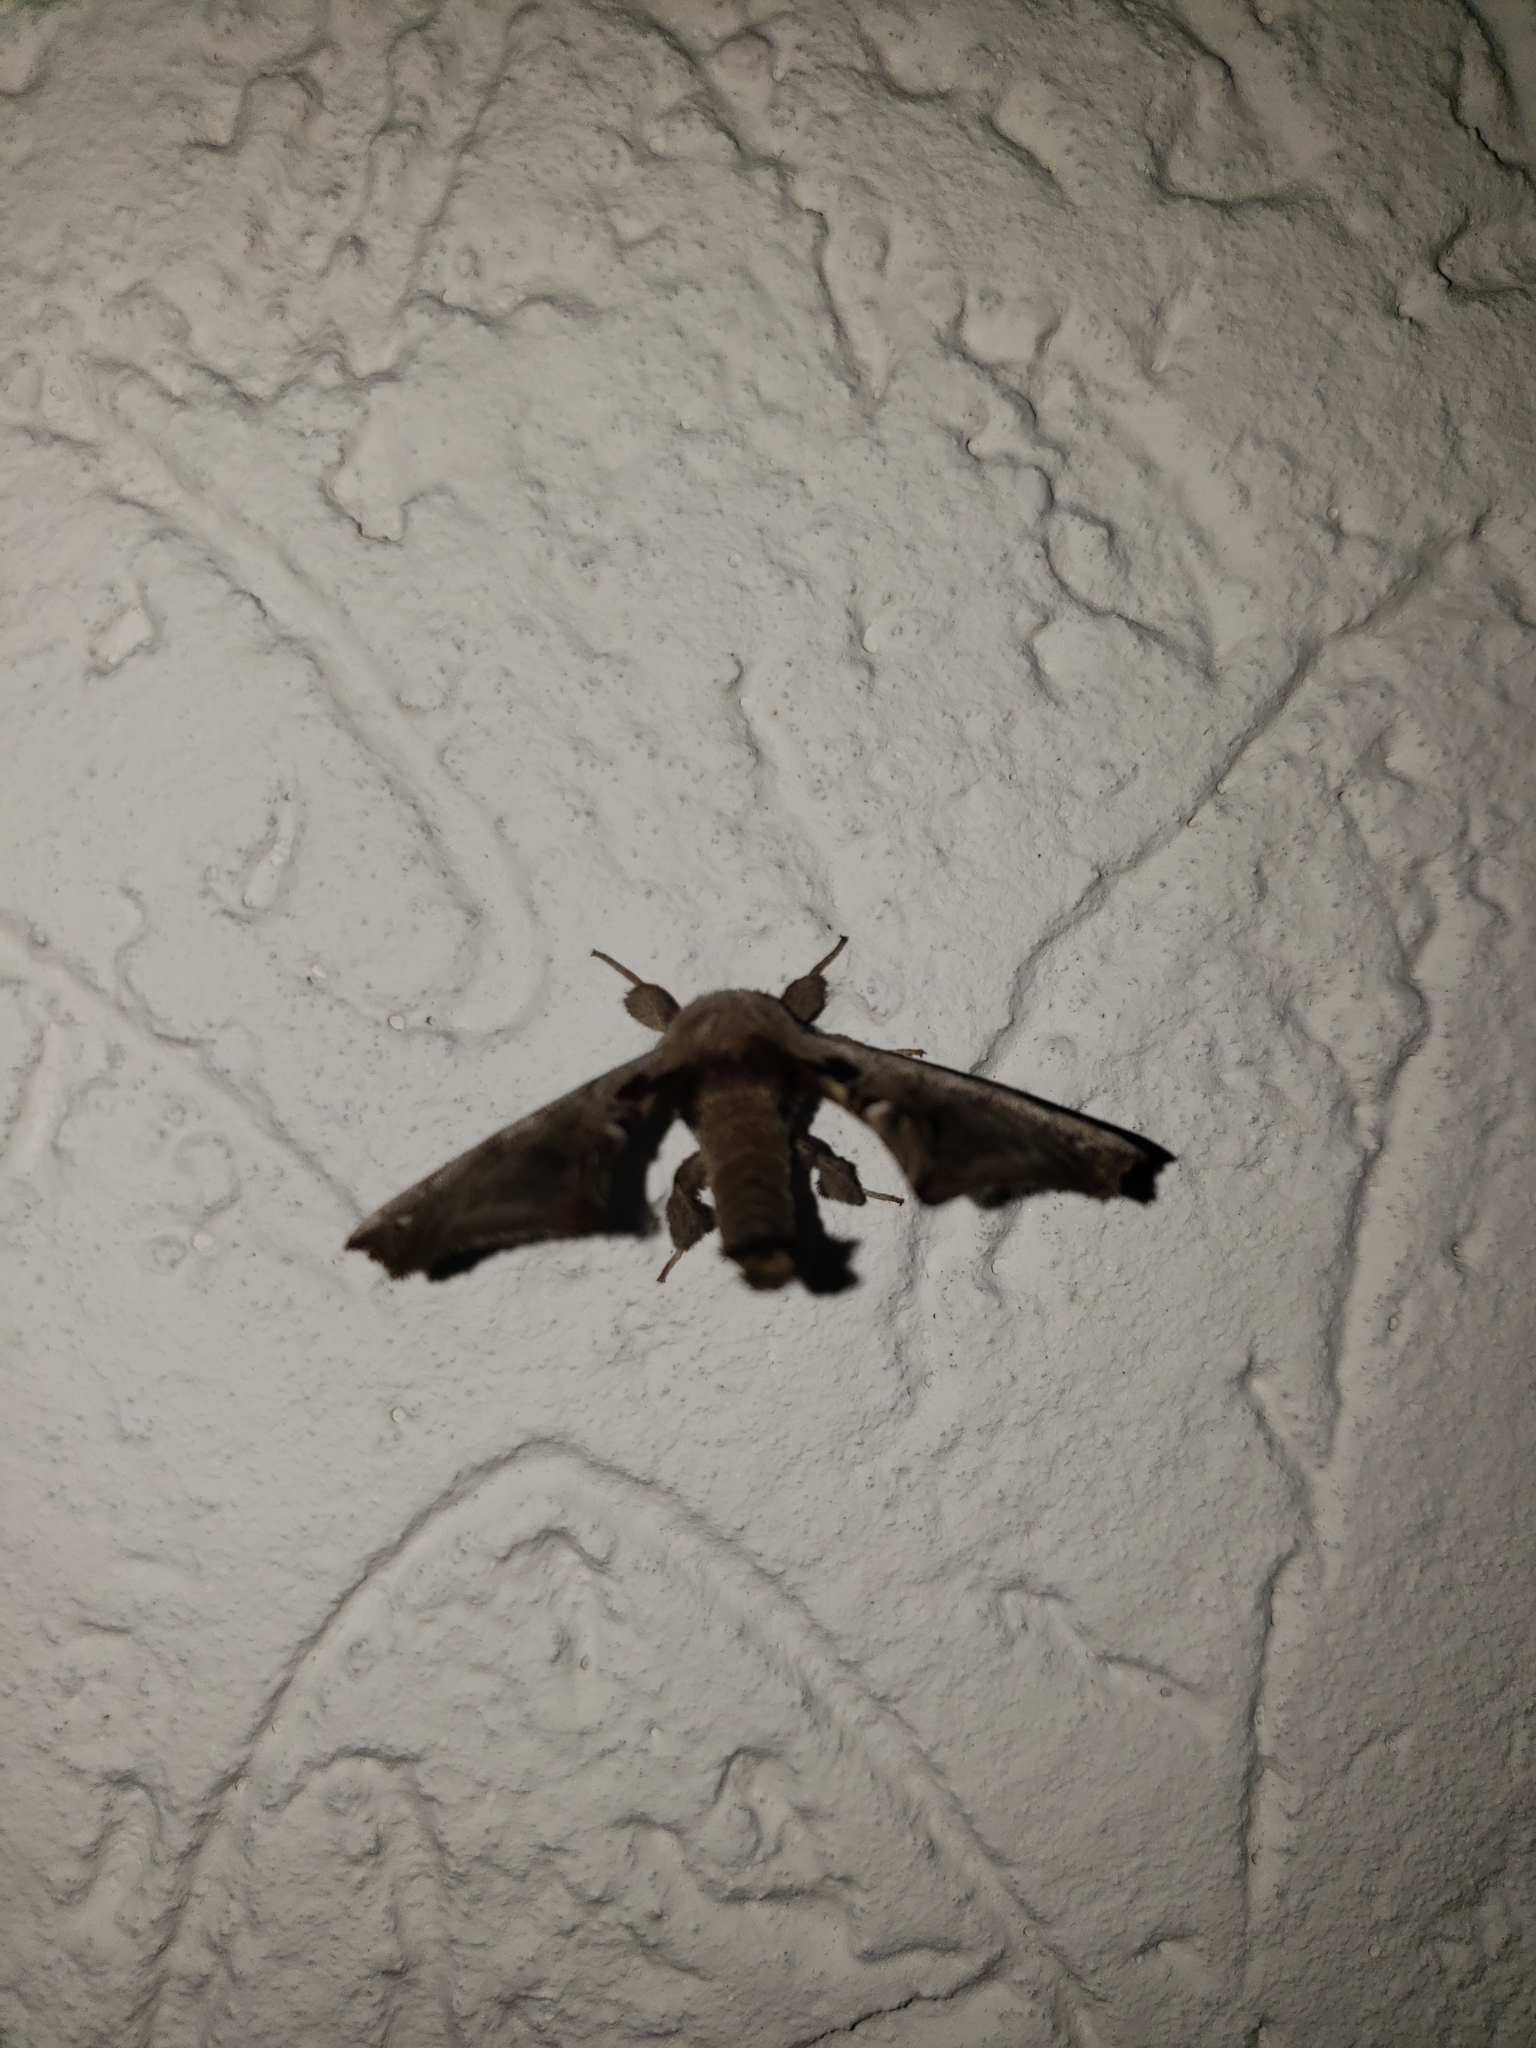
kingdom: Animalia
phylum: Arthropoda
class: Insecta
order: Lepidoptera
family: Apatelodidae
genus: Hygrochroa
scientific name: Hygrochroa Apatelodes torrefacta
